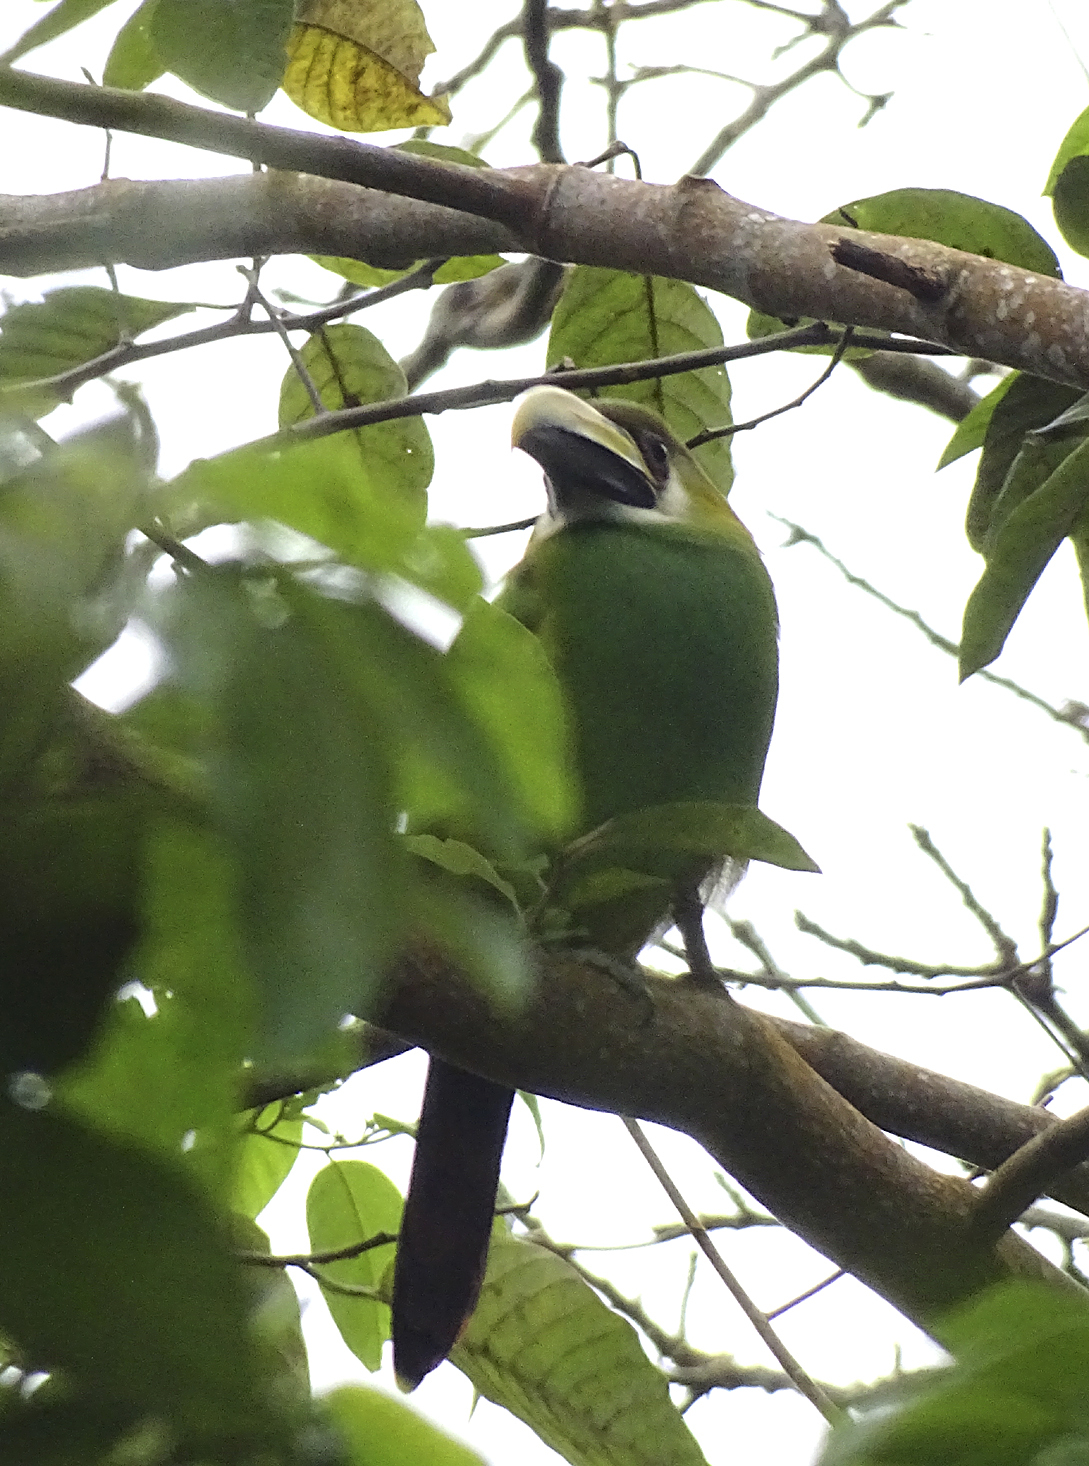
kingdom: Animalia
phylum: Chordata
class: Aves
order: Piciformes
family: Ramphastidae
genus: Aulacorhynchus
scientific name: Aulacorhynchus prasinus
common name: Emerald toucanet
